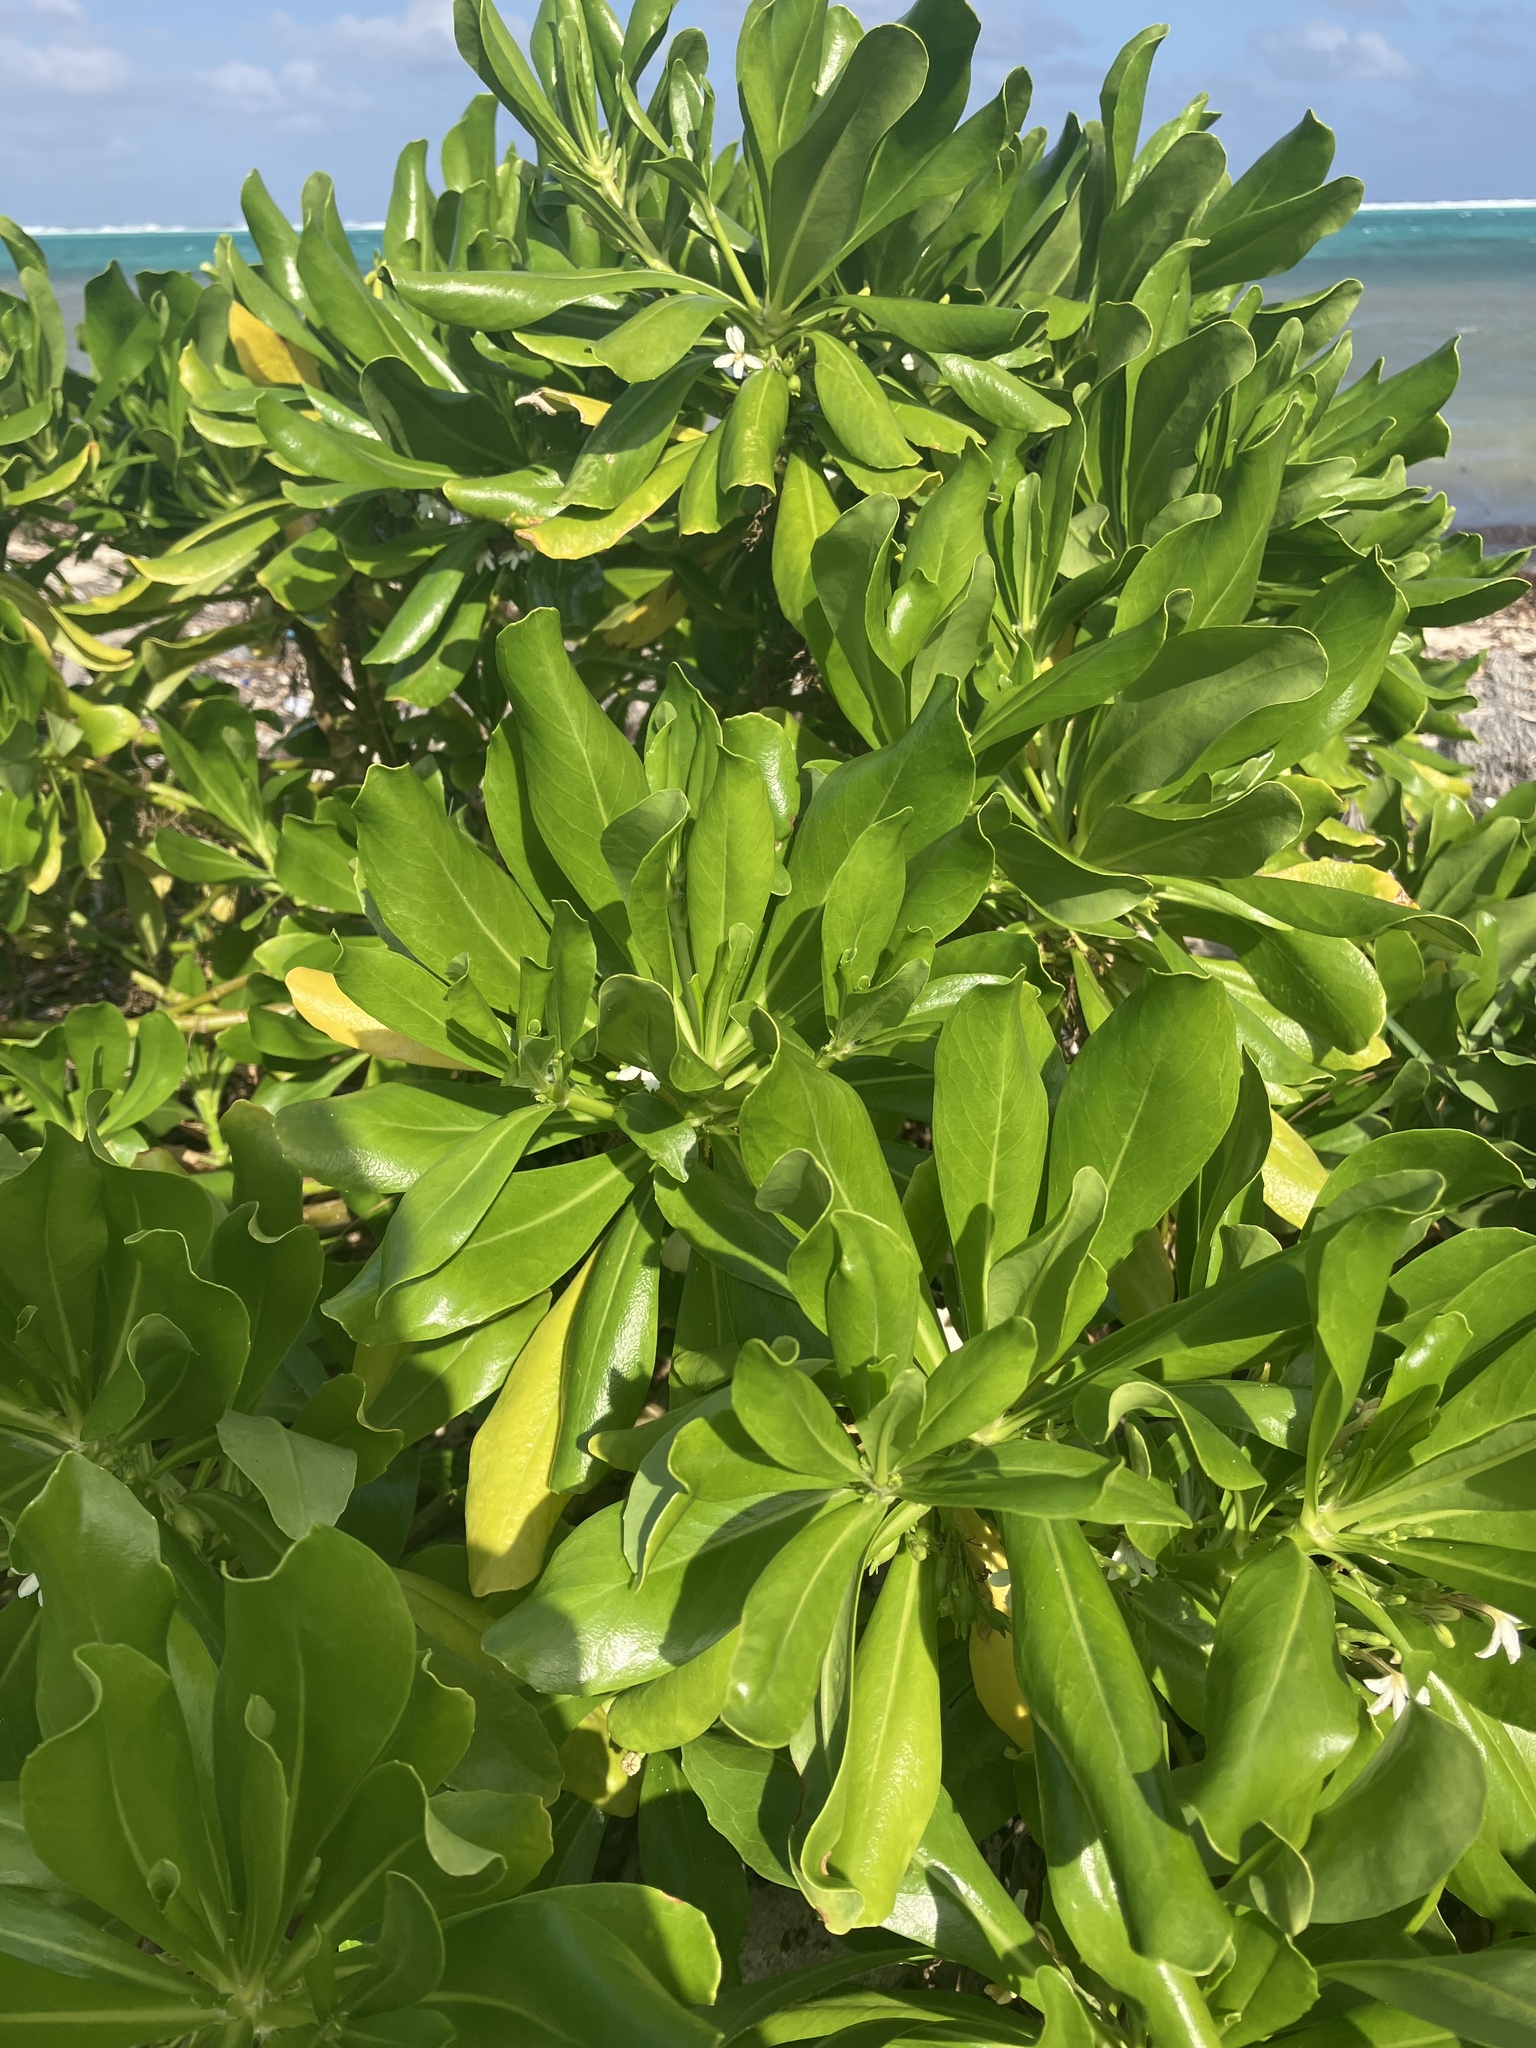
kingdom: Plantae
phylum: Tracheophyta
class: Magnoliopsida
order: Asterales
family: Goodeniaceae
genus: Scaevola
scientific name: Scaevola taccada
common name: Sea lettucetree
